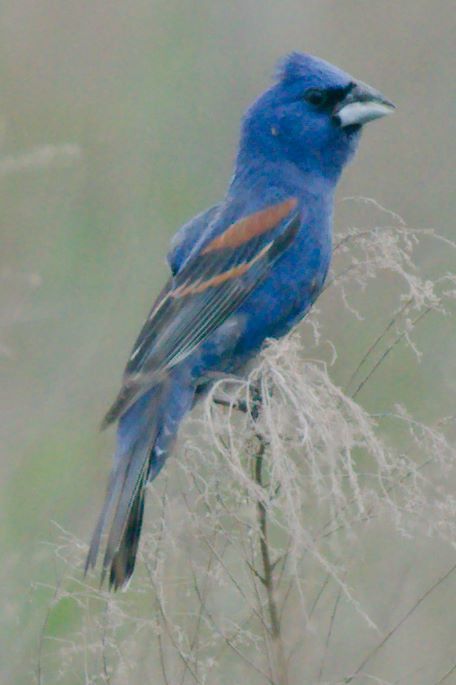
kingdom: Animalia
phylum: Chordata
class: Aves
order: Passeriformes
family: Cardinalidae
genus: Passerina
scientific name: Passerina caerulea
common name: Blue grosbeak
